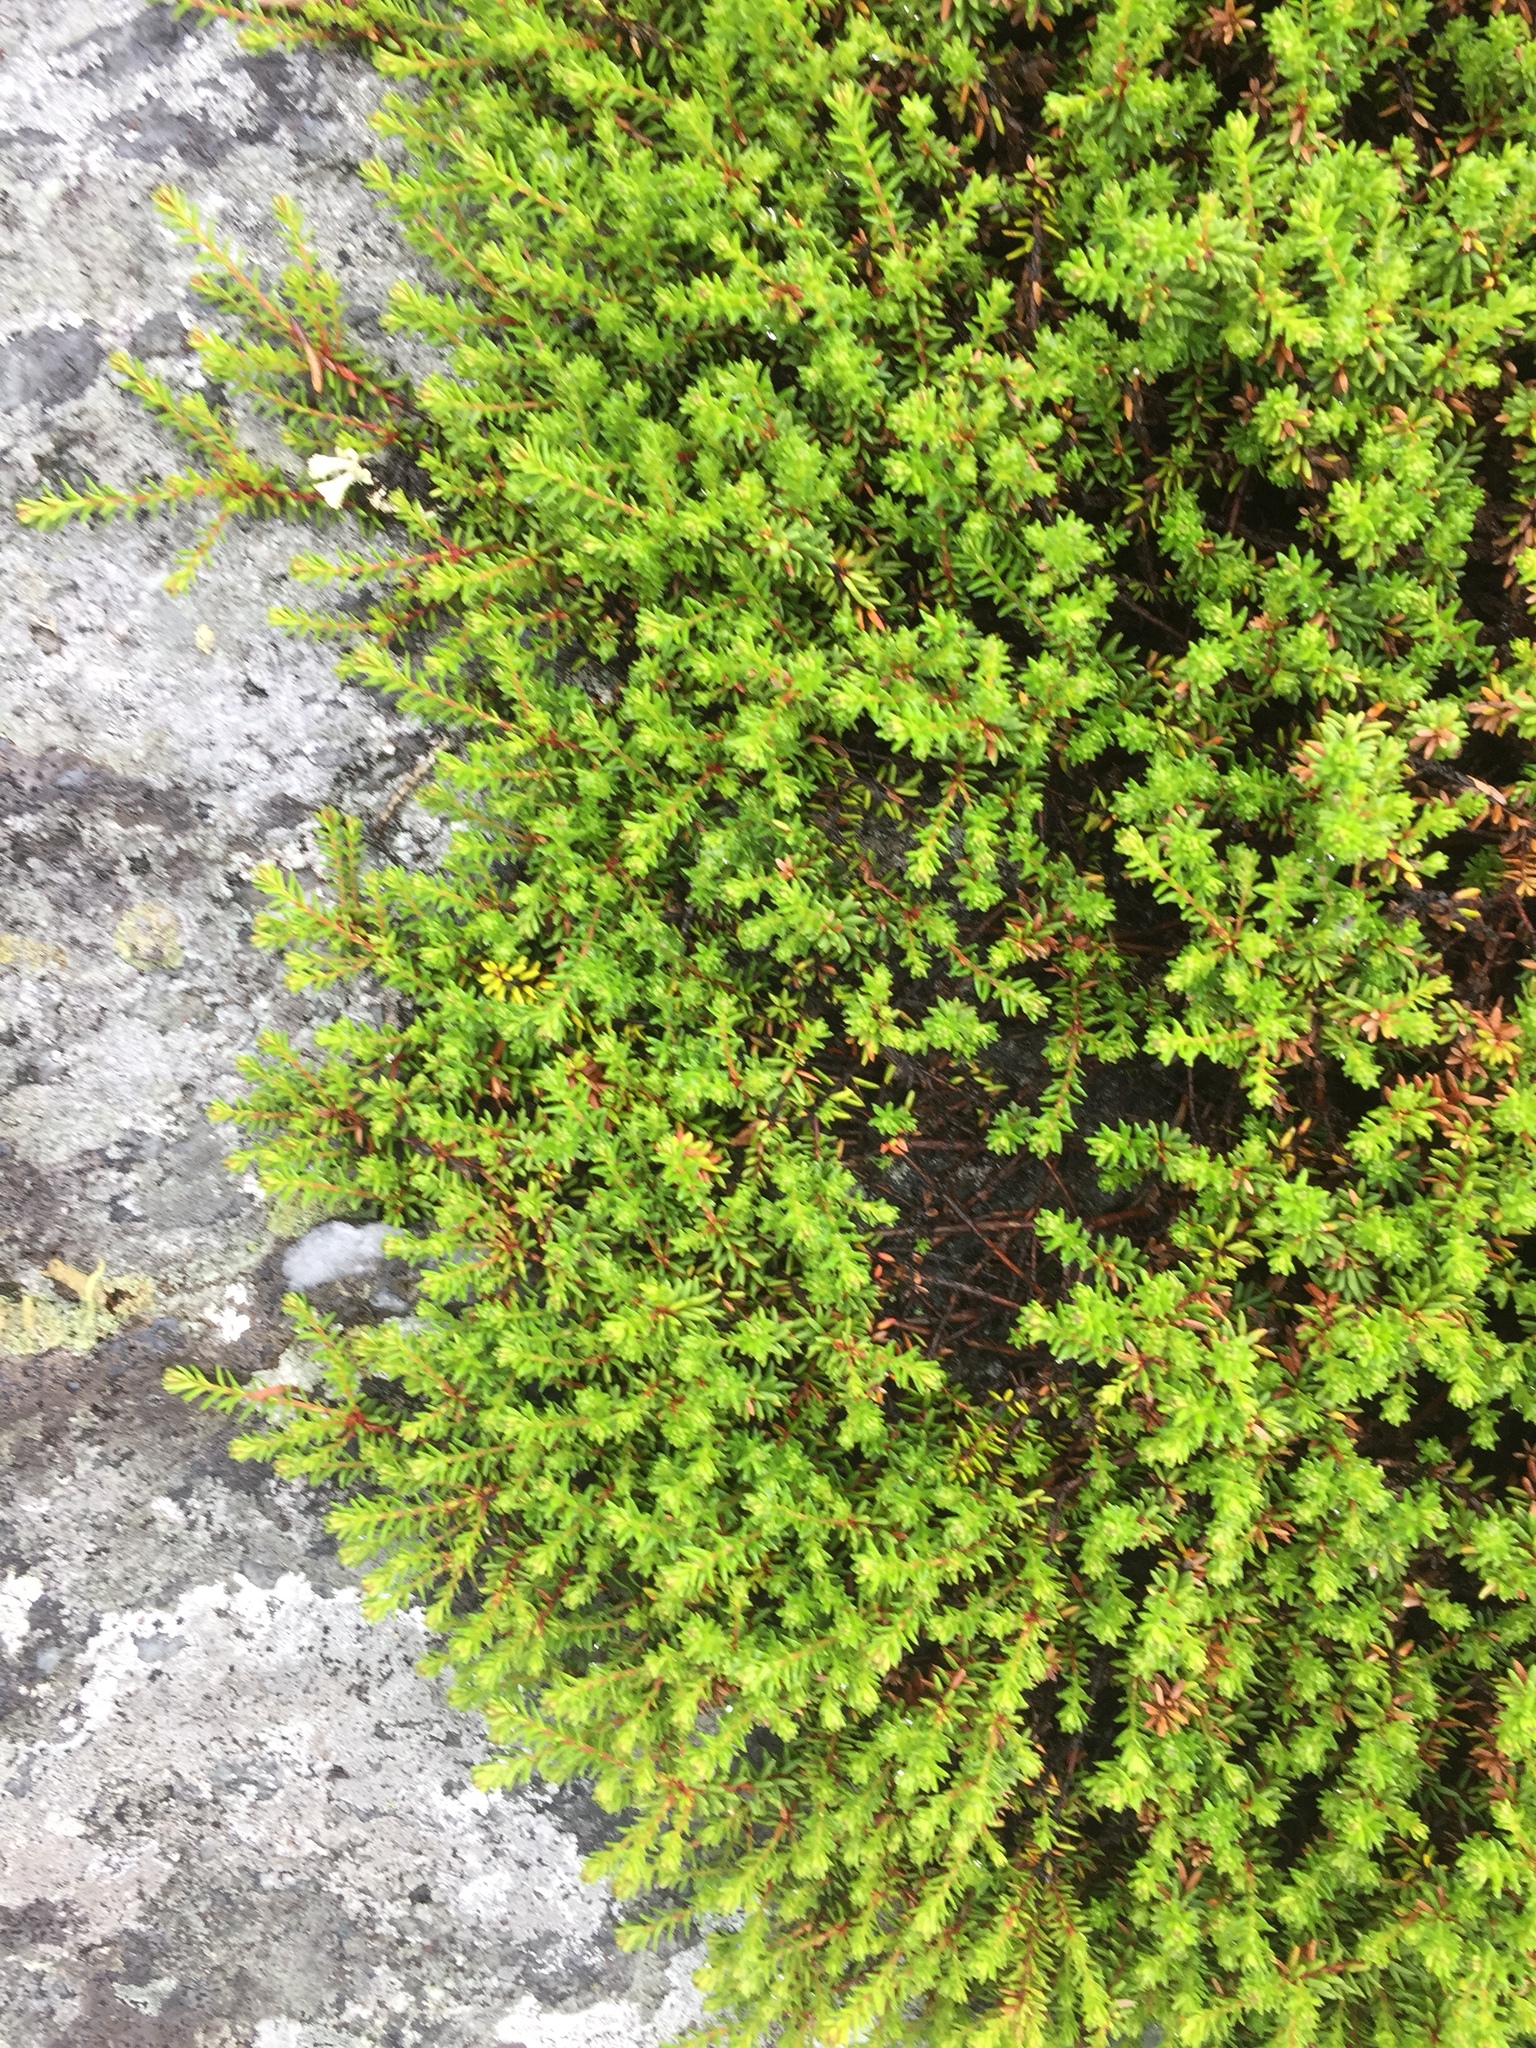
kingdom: Plantae
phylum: Tracheophyta
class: Magnoliopsida
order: Ericales
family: Ericaceae
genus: Empetrum
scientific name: Empetrum nigrum
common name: Black crowberry
